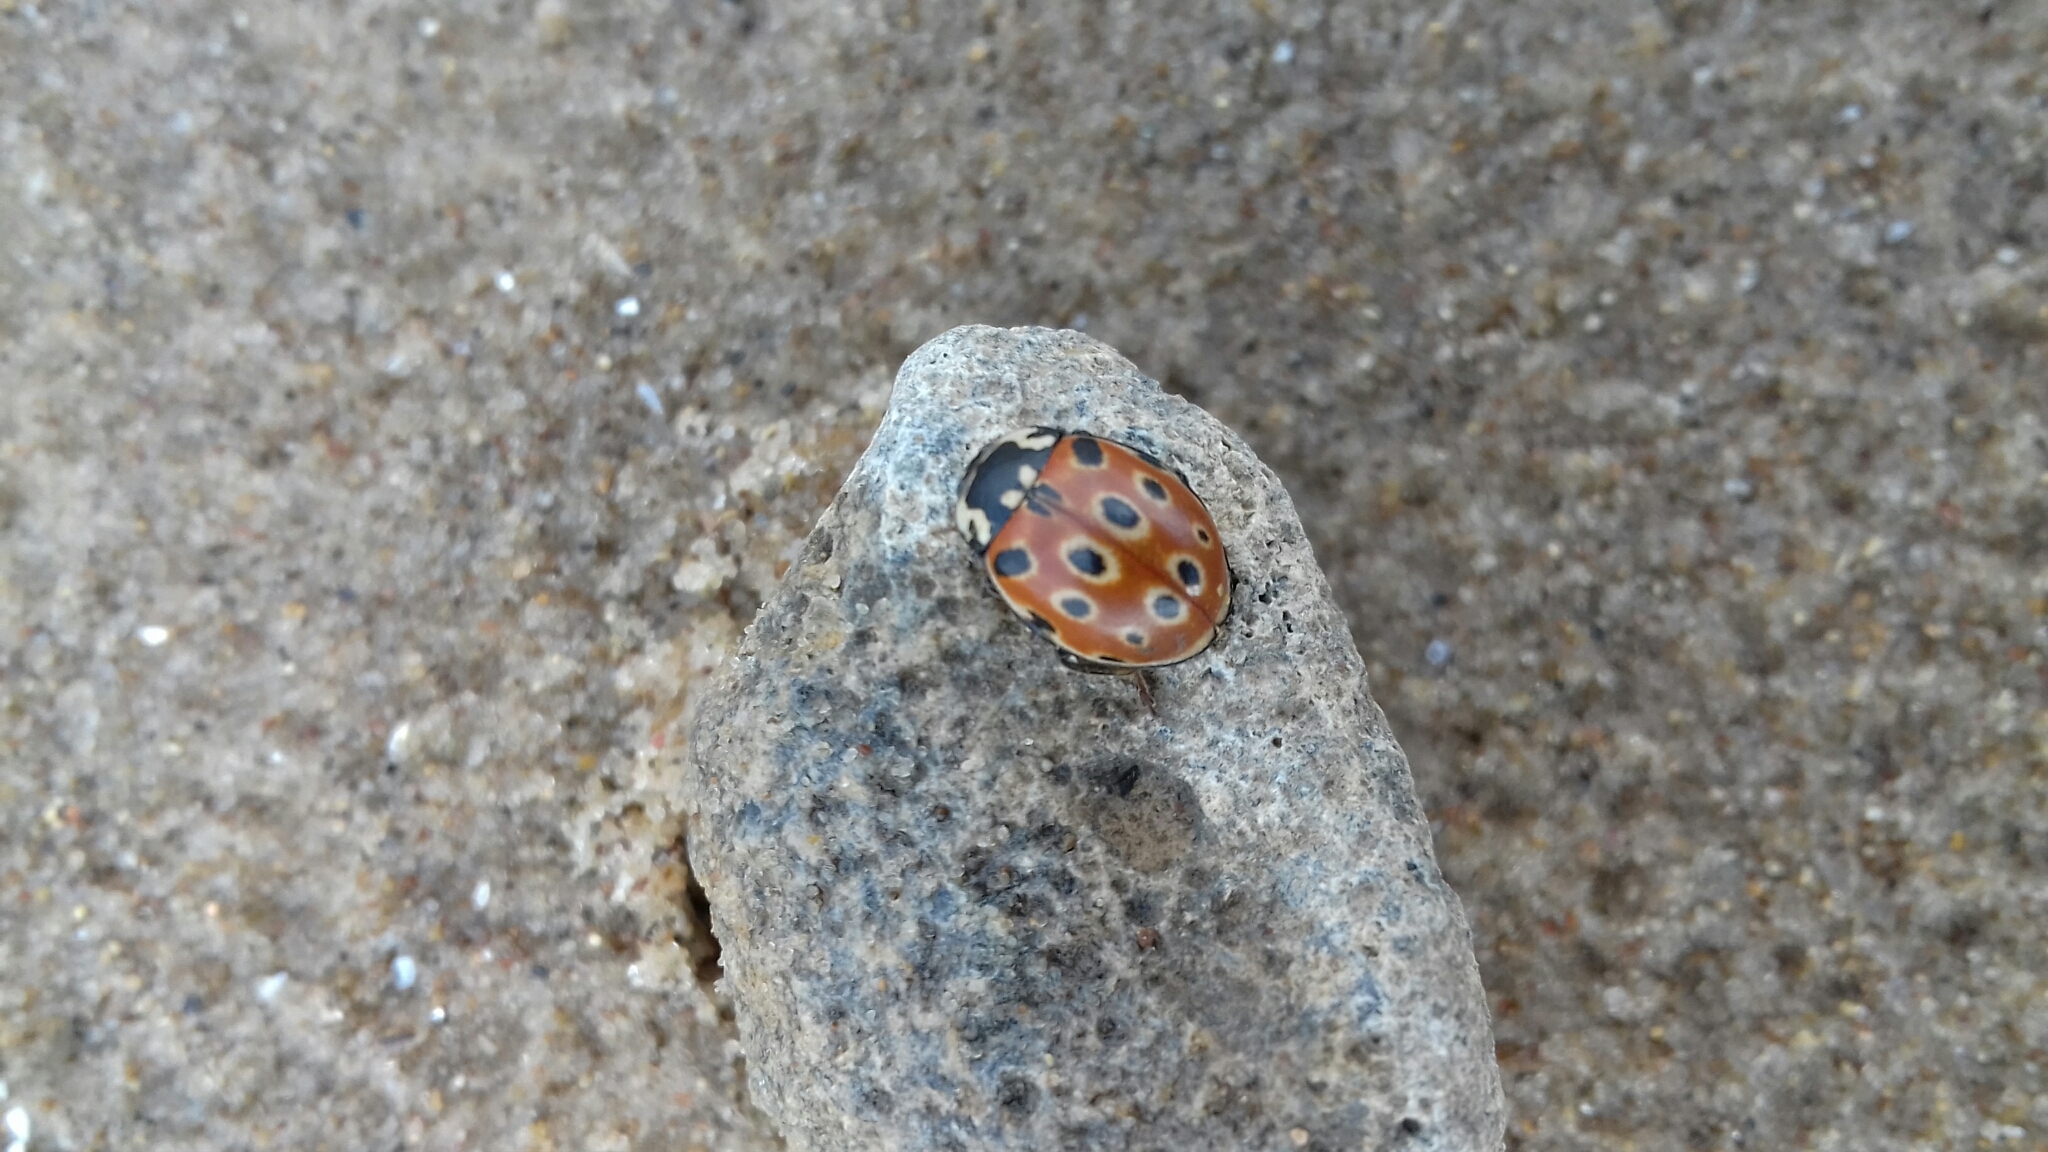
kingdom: Animalia
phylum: Arthropoda
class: Insecta
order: Coleoptera
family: Coccinellidae
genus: Anatis
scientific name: Anatis ocellata
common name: Eyed ladybird
